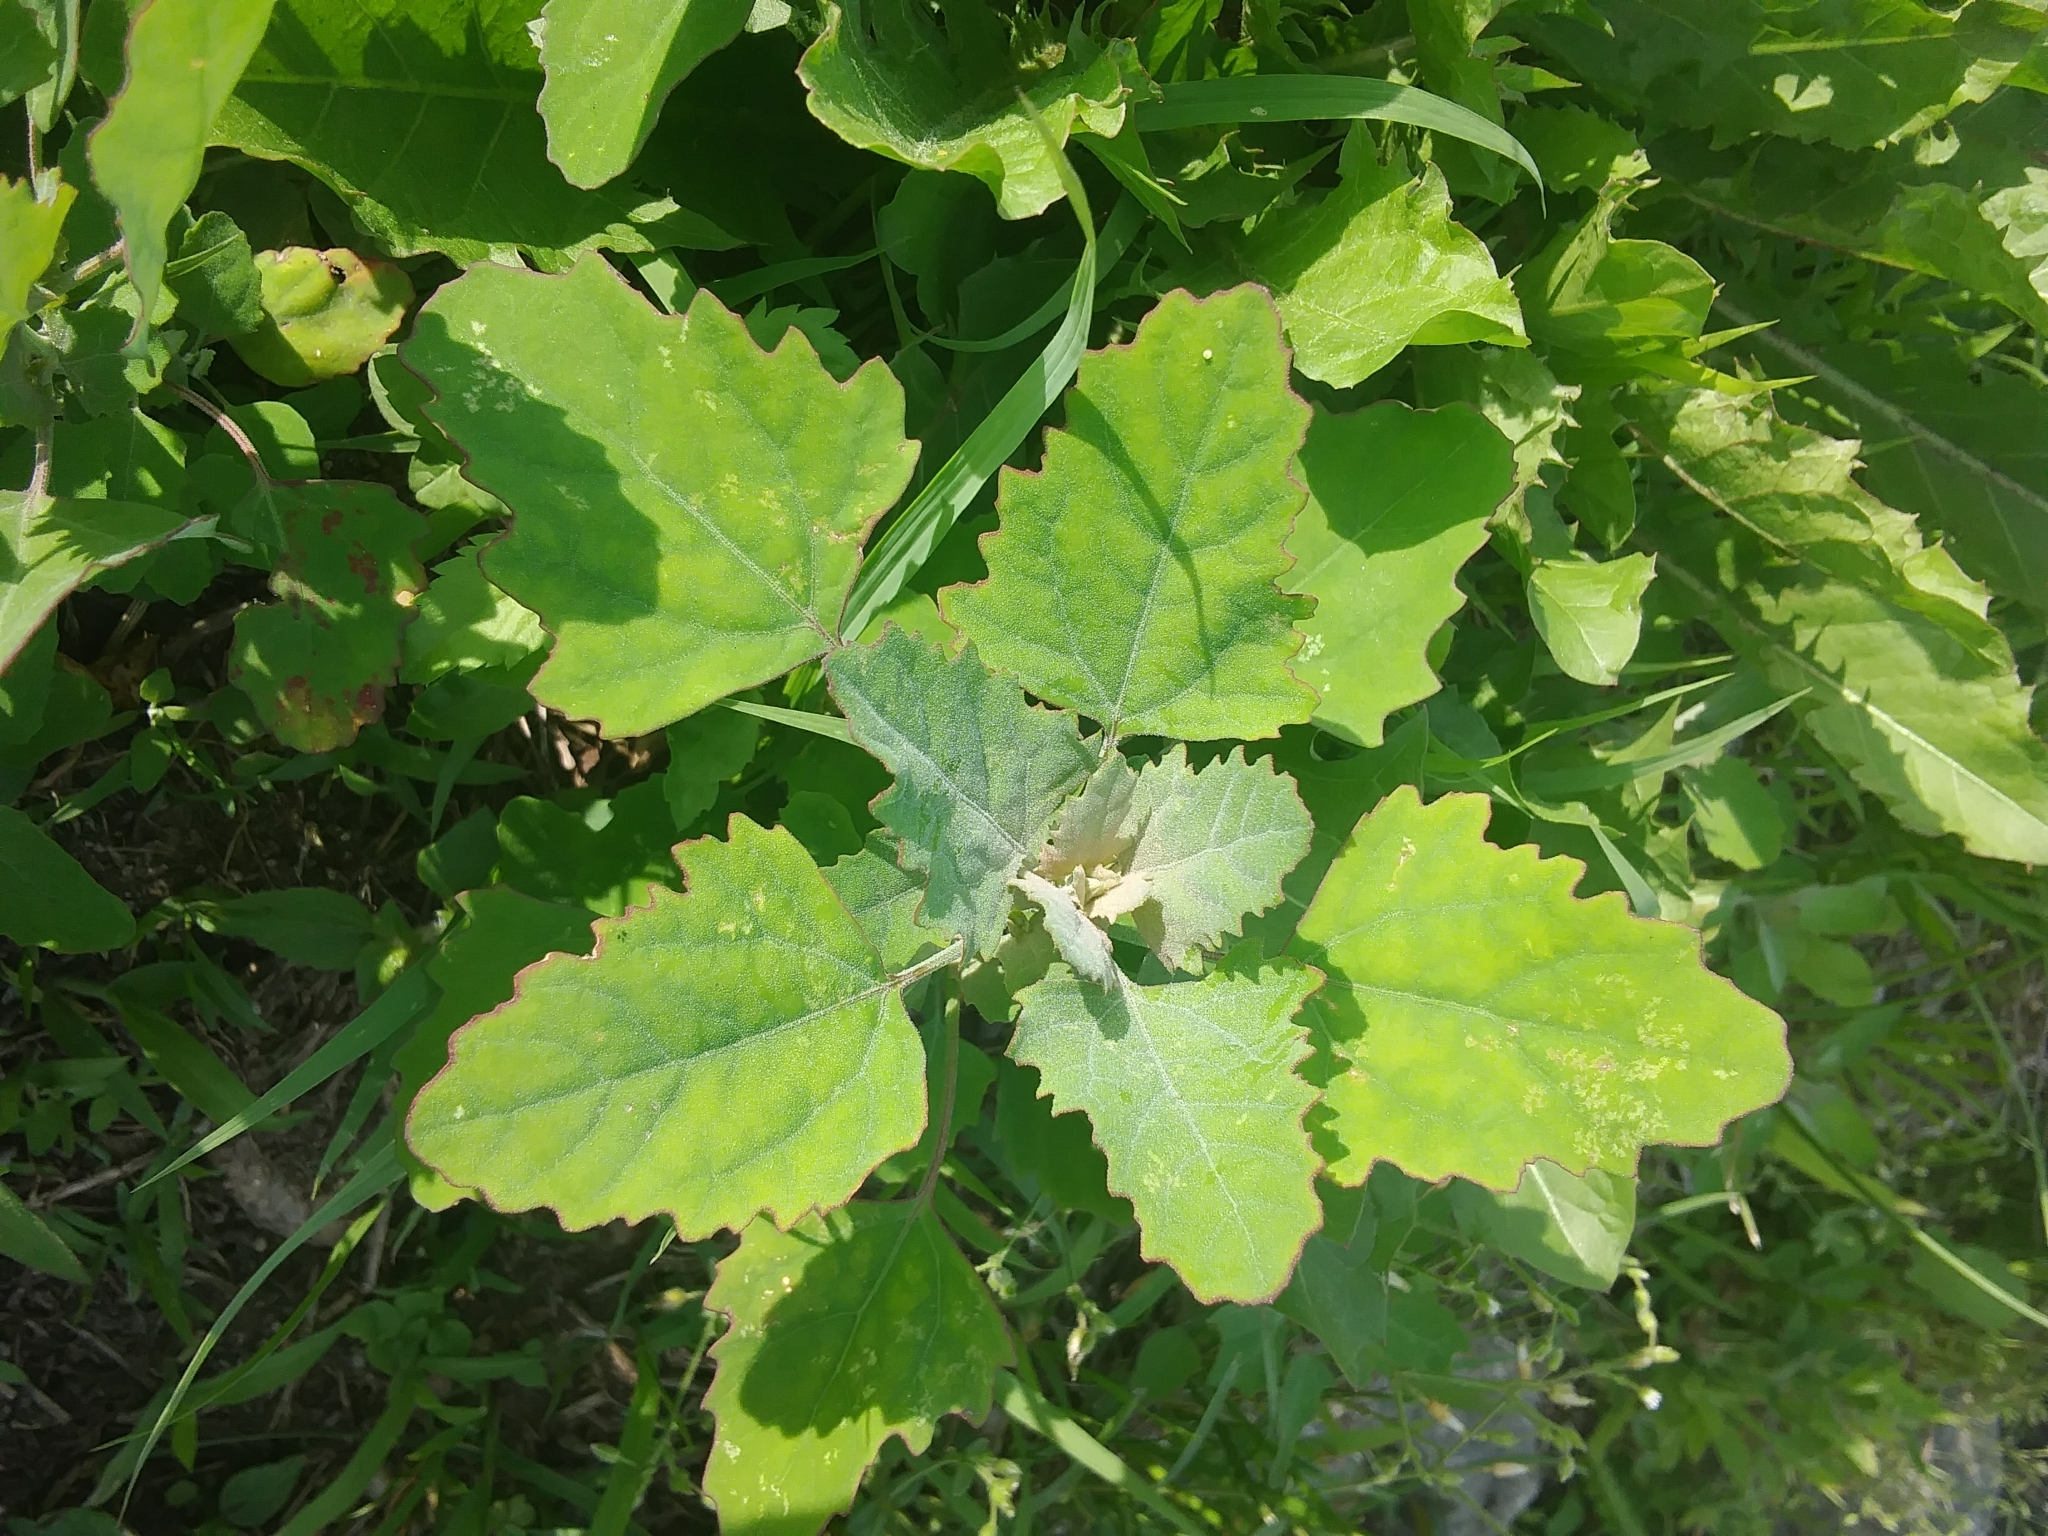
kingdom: Plantae
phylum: Tracheophyta
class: Magnoliopsida
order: Caryophyllales
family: Amaranthaceae
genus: Chenopodium
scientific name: Chenopodium album
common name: Fat-hen
